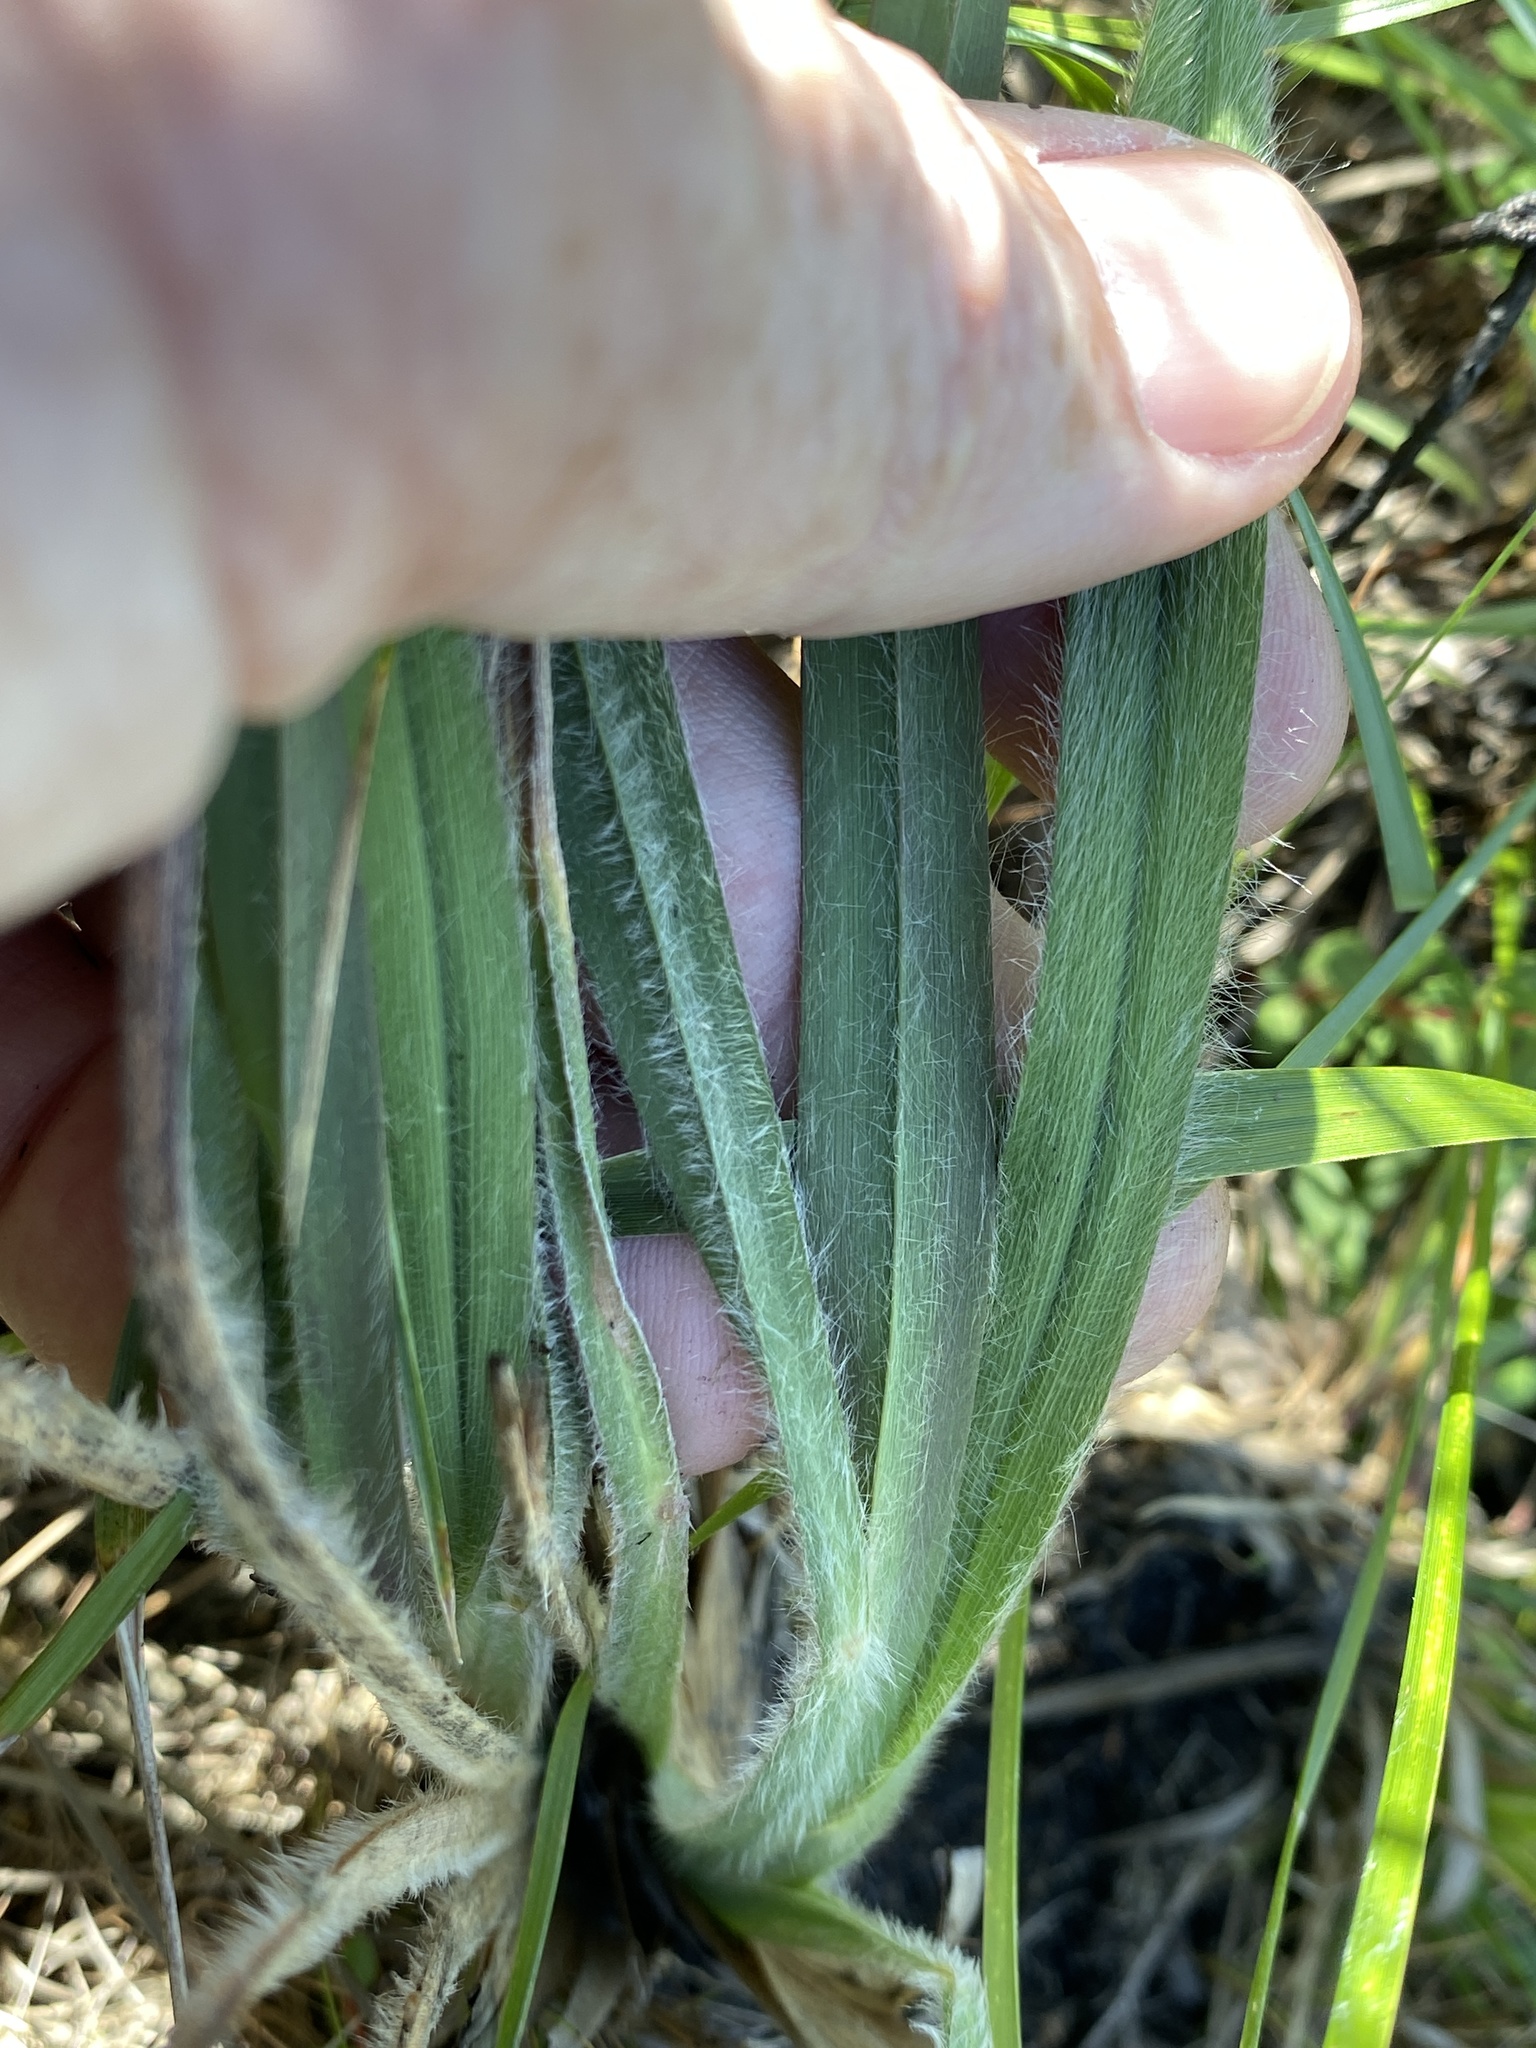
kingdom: Plantae
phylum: Tracheophyta
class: Liliopsida
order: Poales
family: Poaceae
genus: Andropogon
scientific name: Andropogon mohrii
